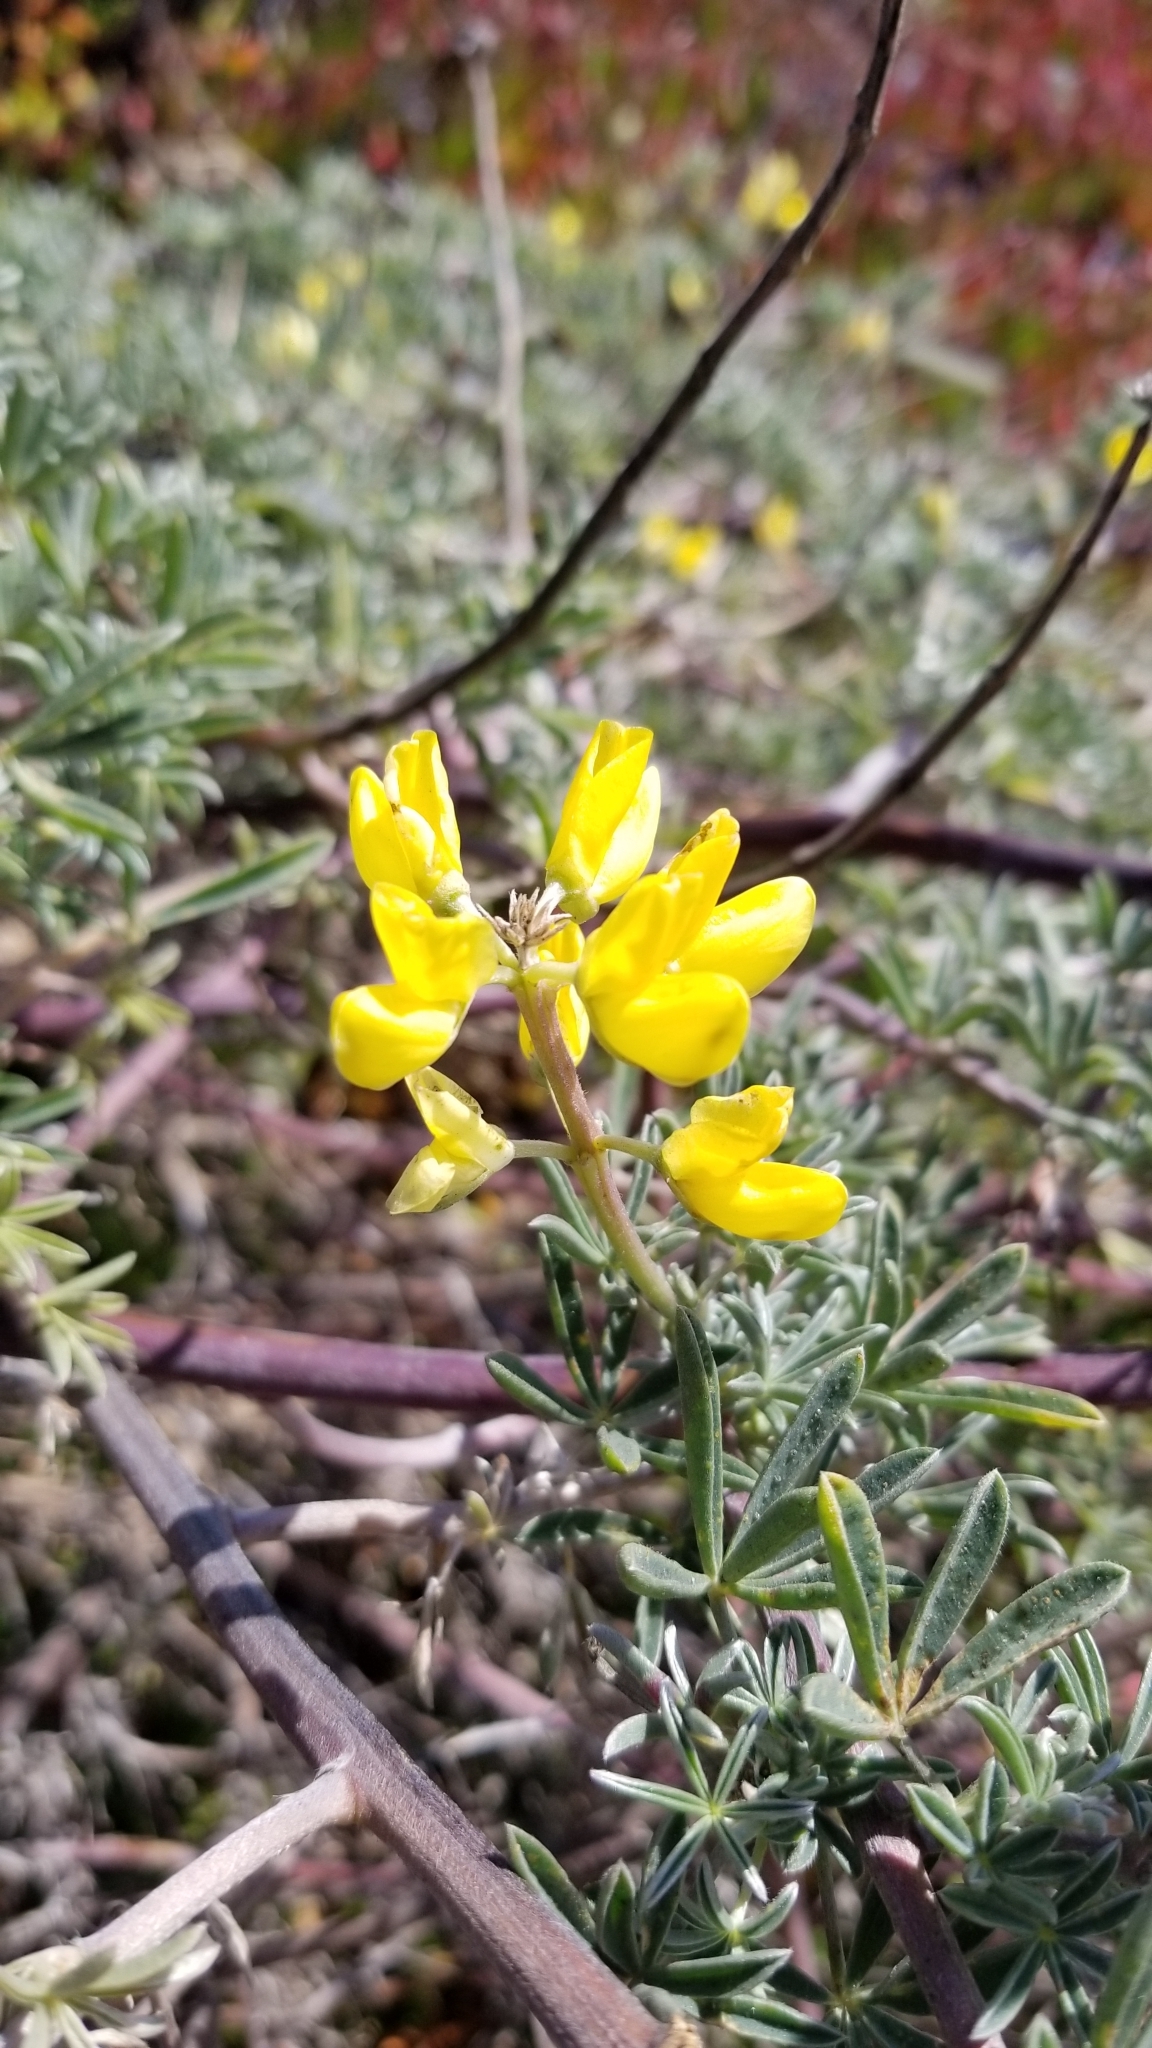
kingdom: Plantae
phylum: Tracheophyta
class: Magnoliopsida
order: Fabales
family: Fabaceae
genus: Lupinus
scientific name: Lupinus arboreus
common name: Yellow bush lupine
